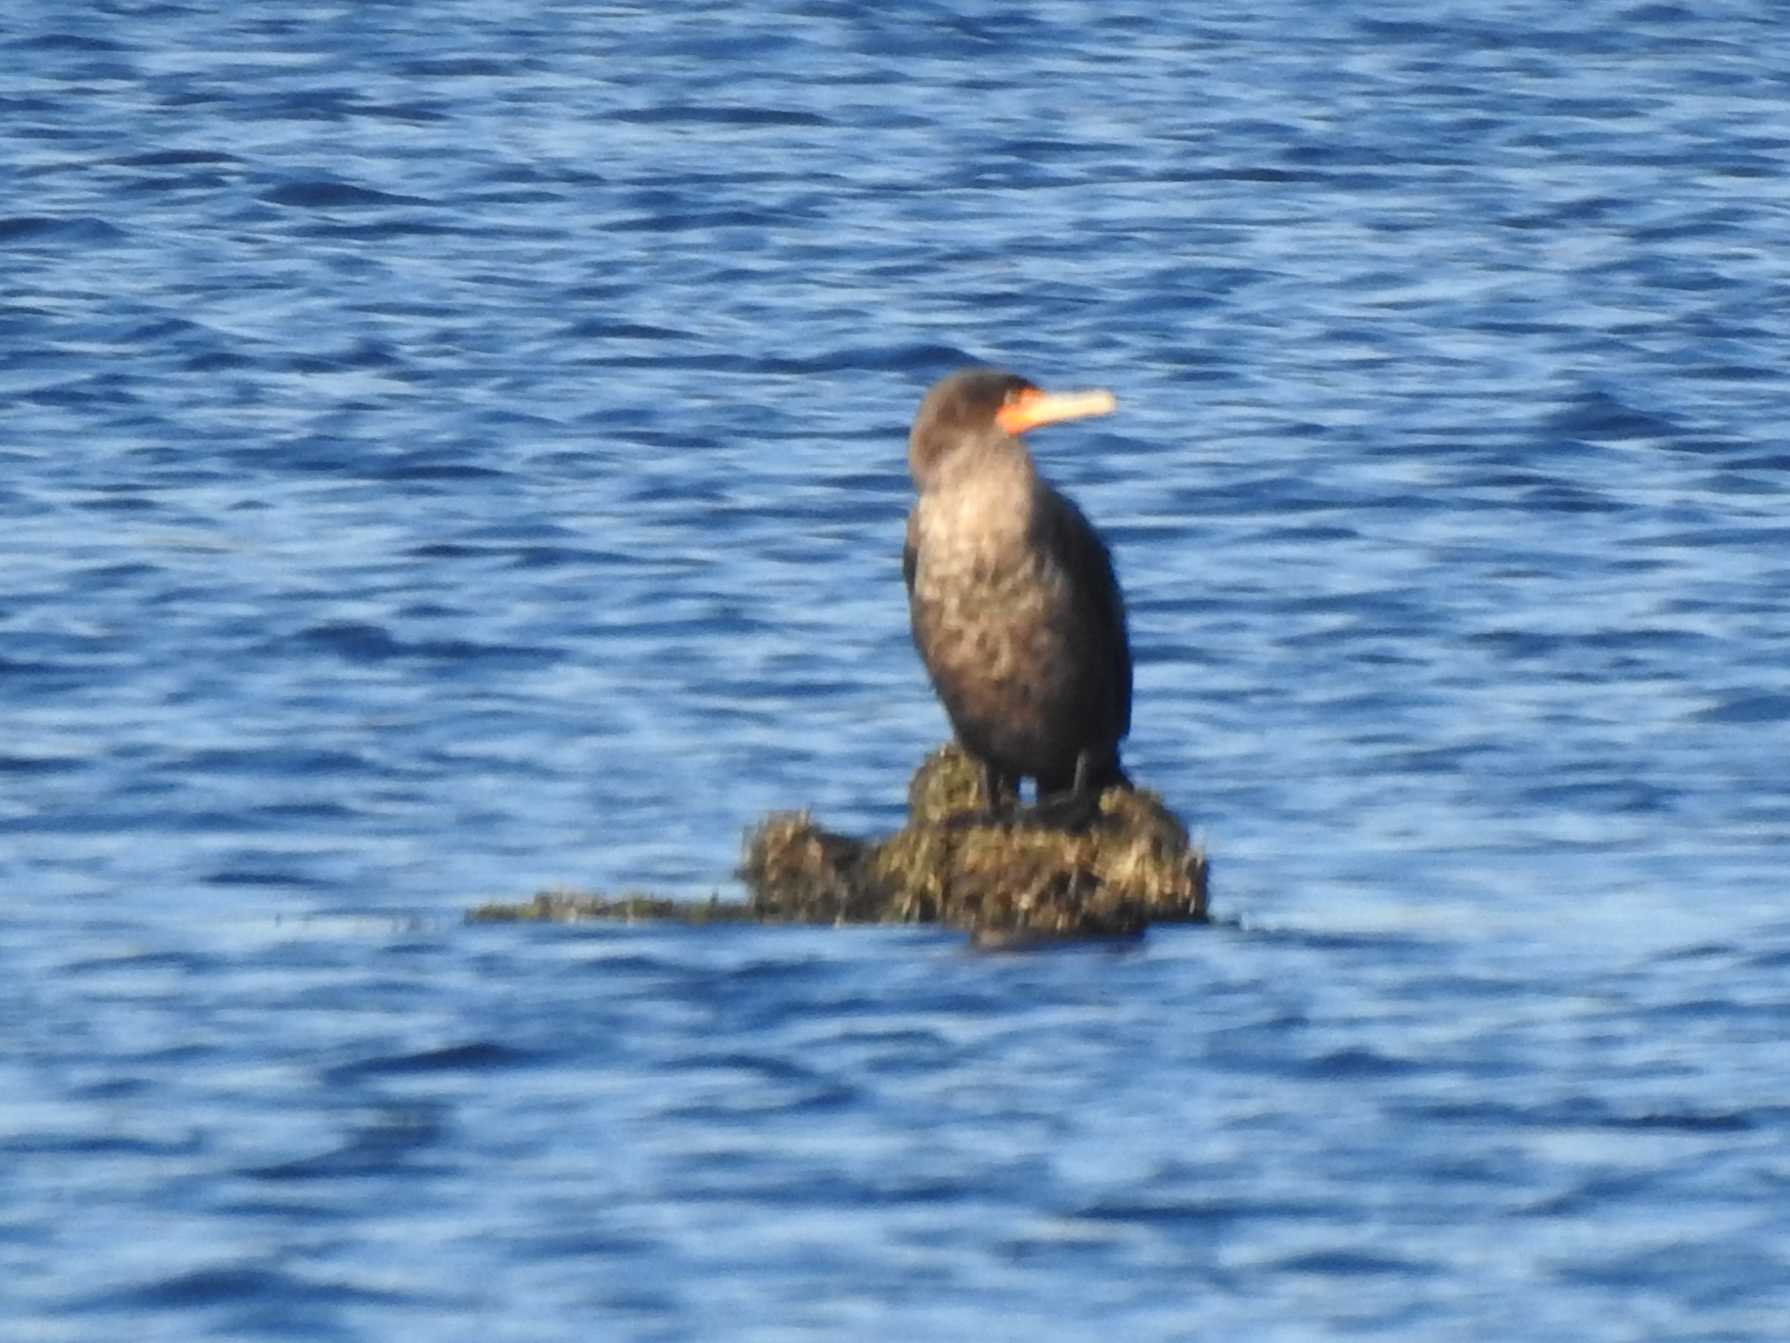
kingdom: Animalia
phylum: Chordata
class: Aves
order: Suliformes
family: Phalacrocoracidae
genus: Phalacrocorax
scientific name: Phalacrocorax auritus
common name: Double-crested cormorant
